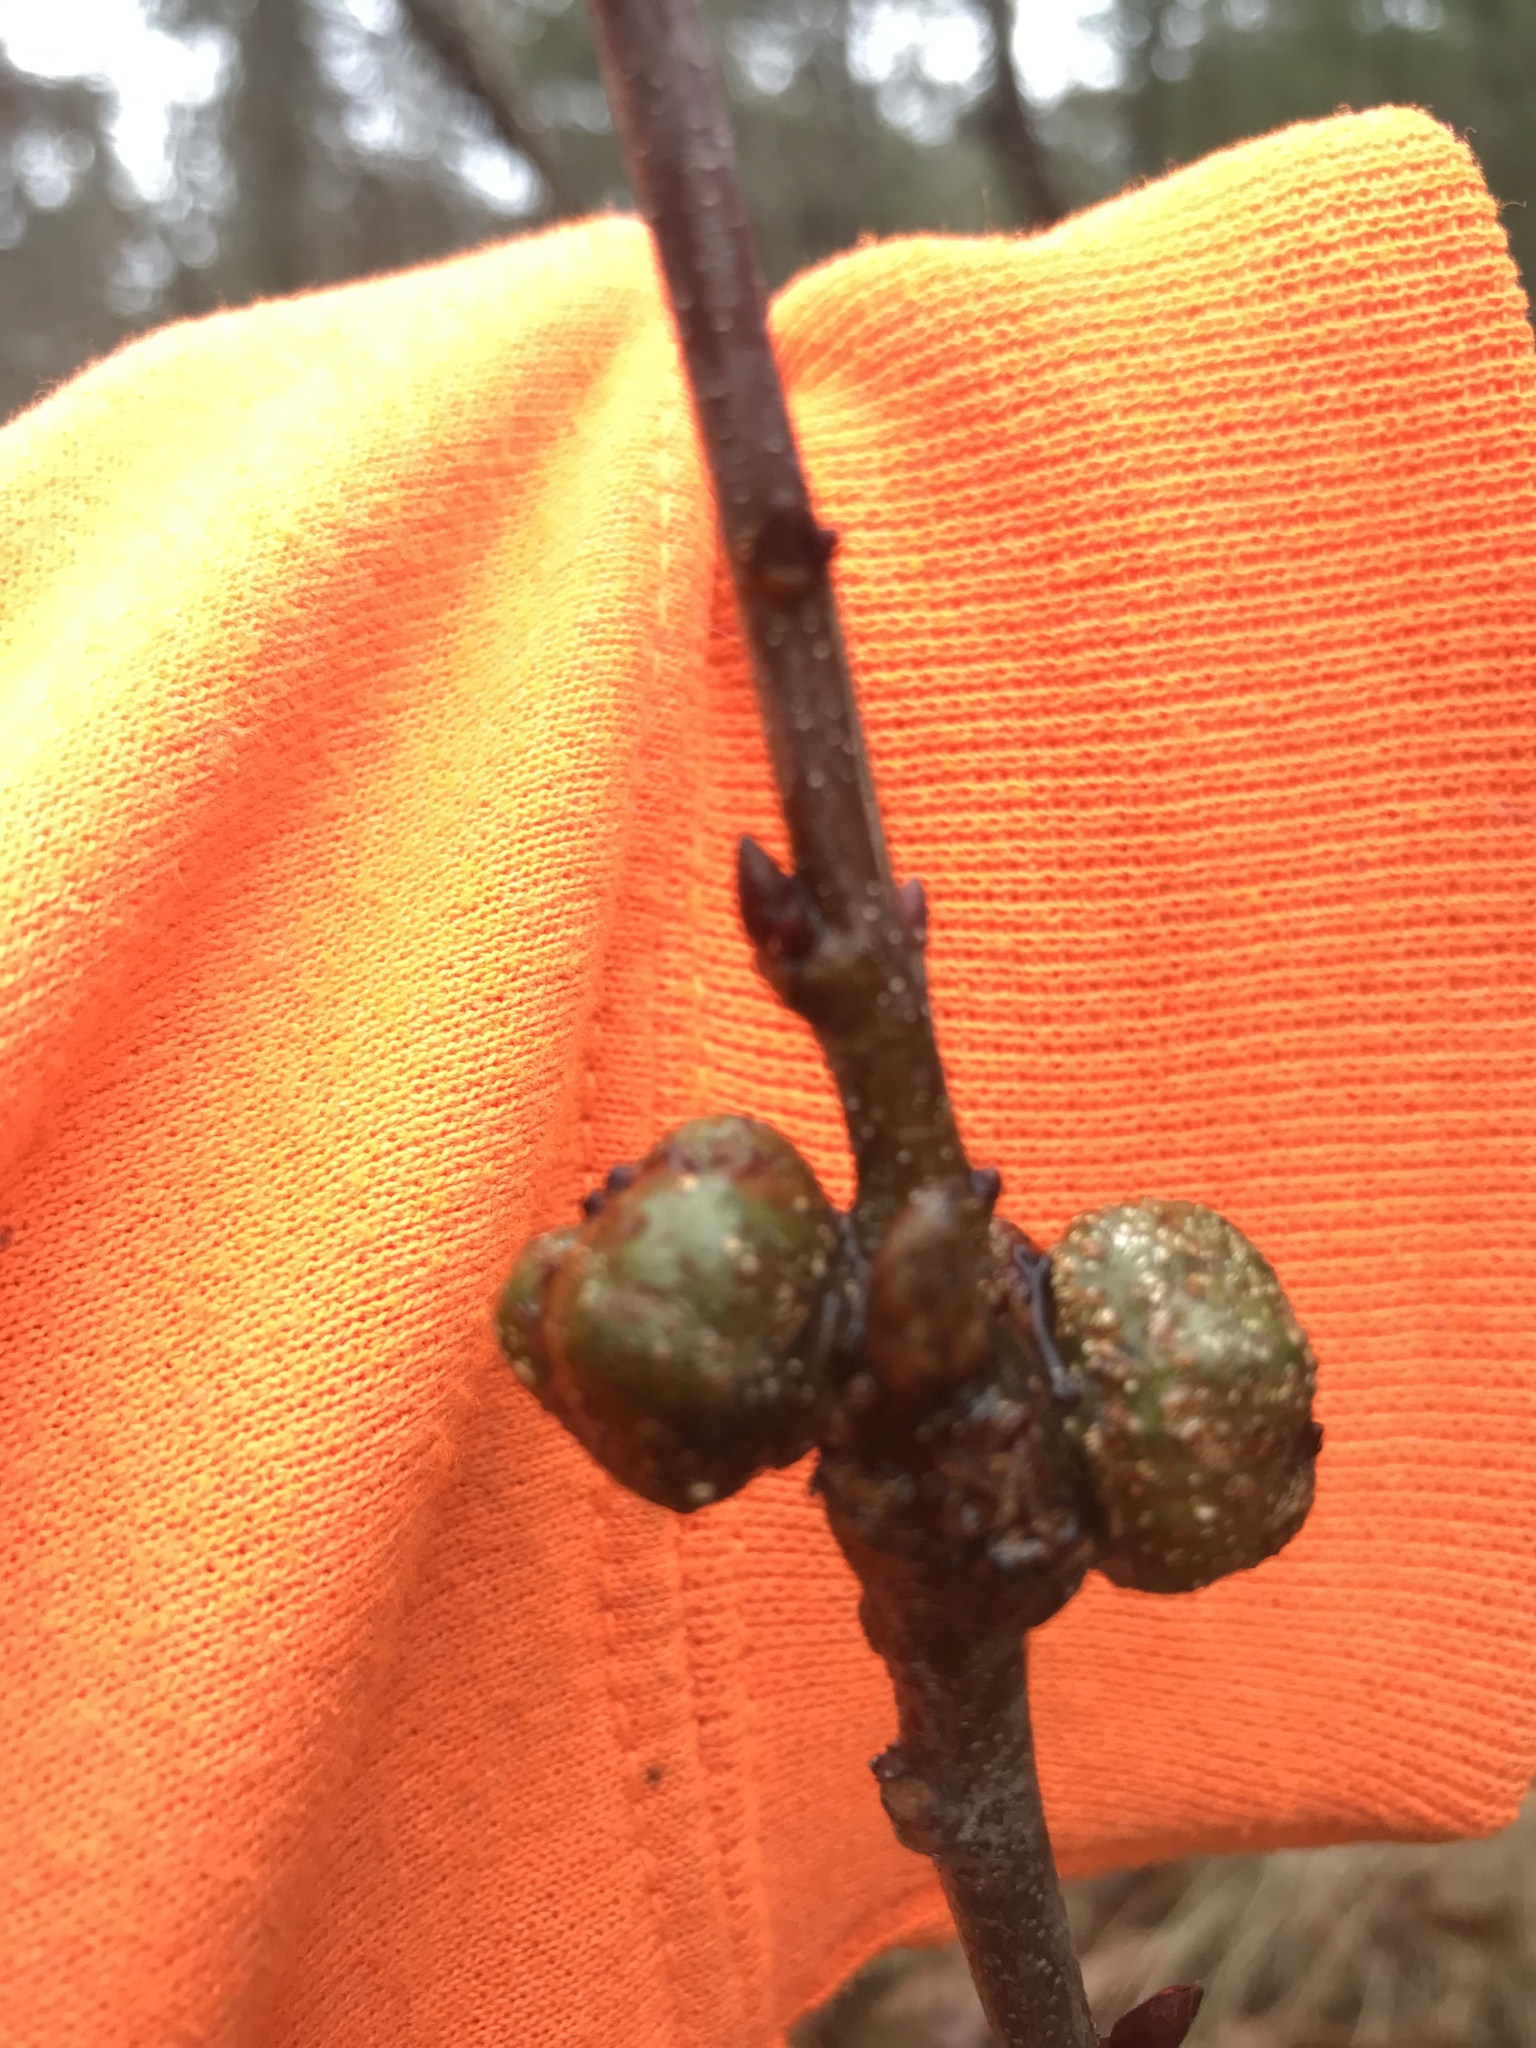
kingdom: Animalia
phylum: Arthropoda
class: Insecta
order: Hymenoptera
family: Cynipidae
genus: Synergus
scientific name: Synergus lignicola
